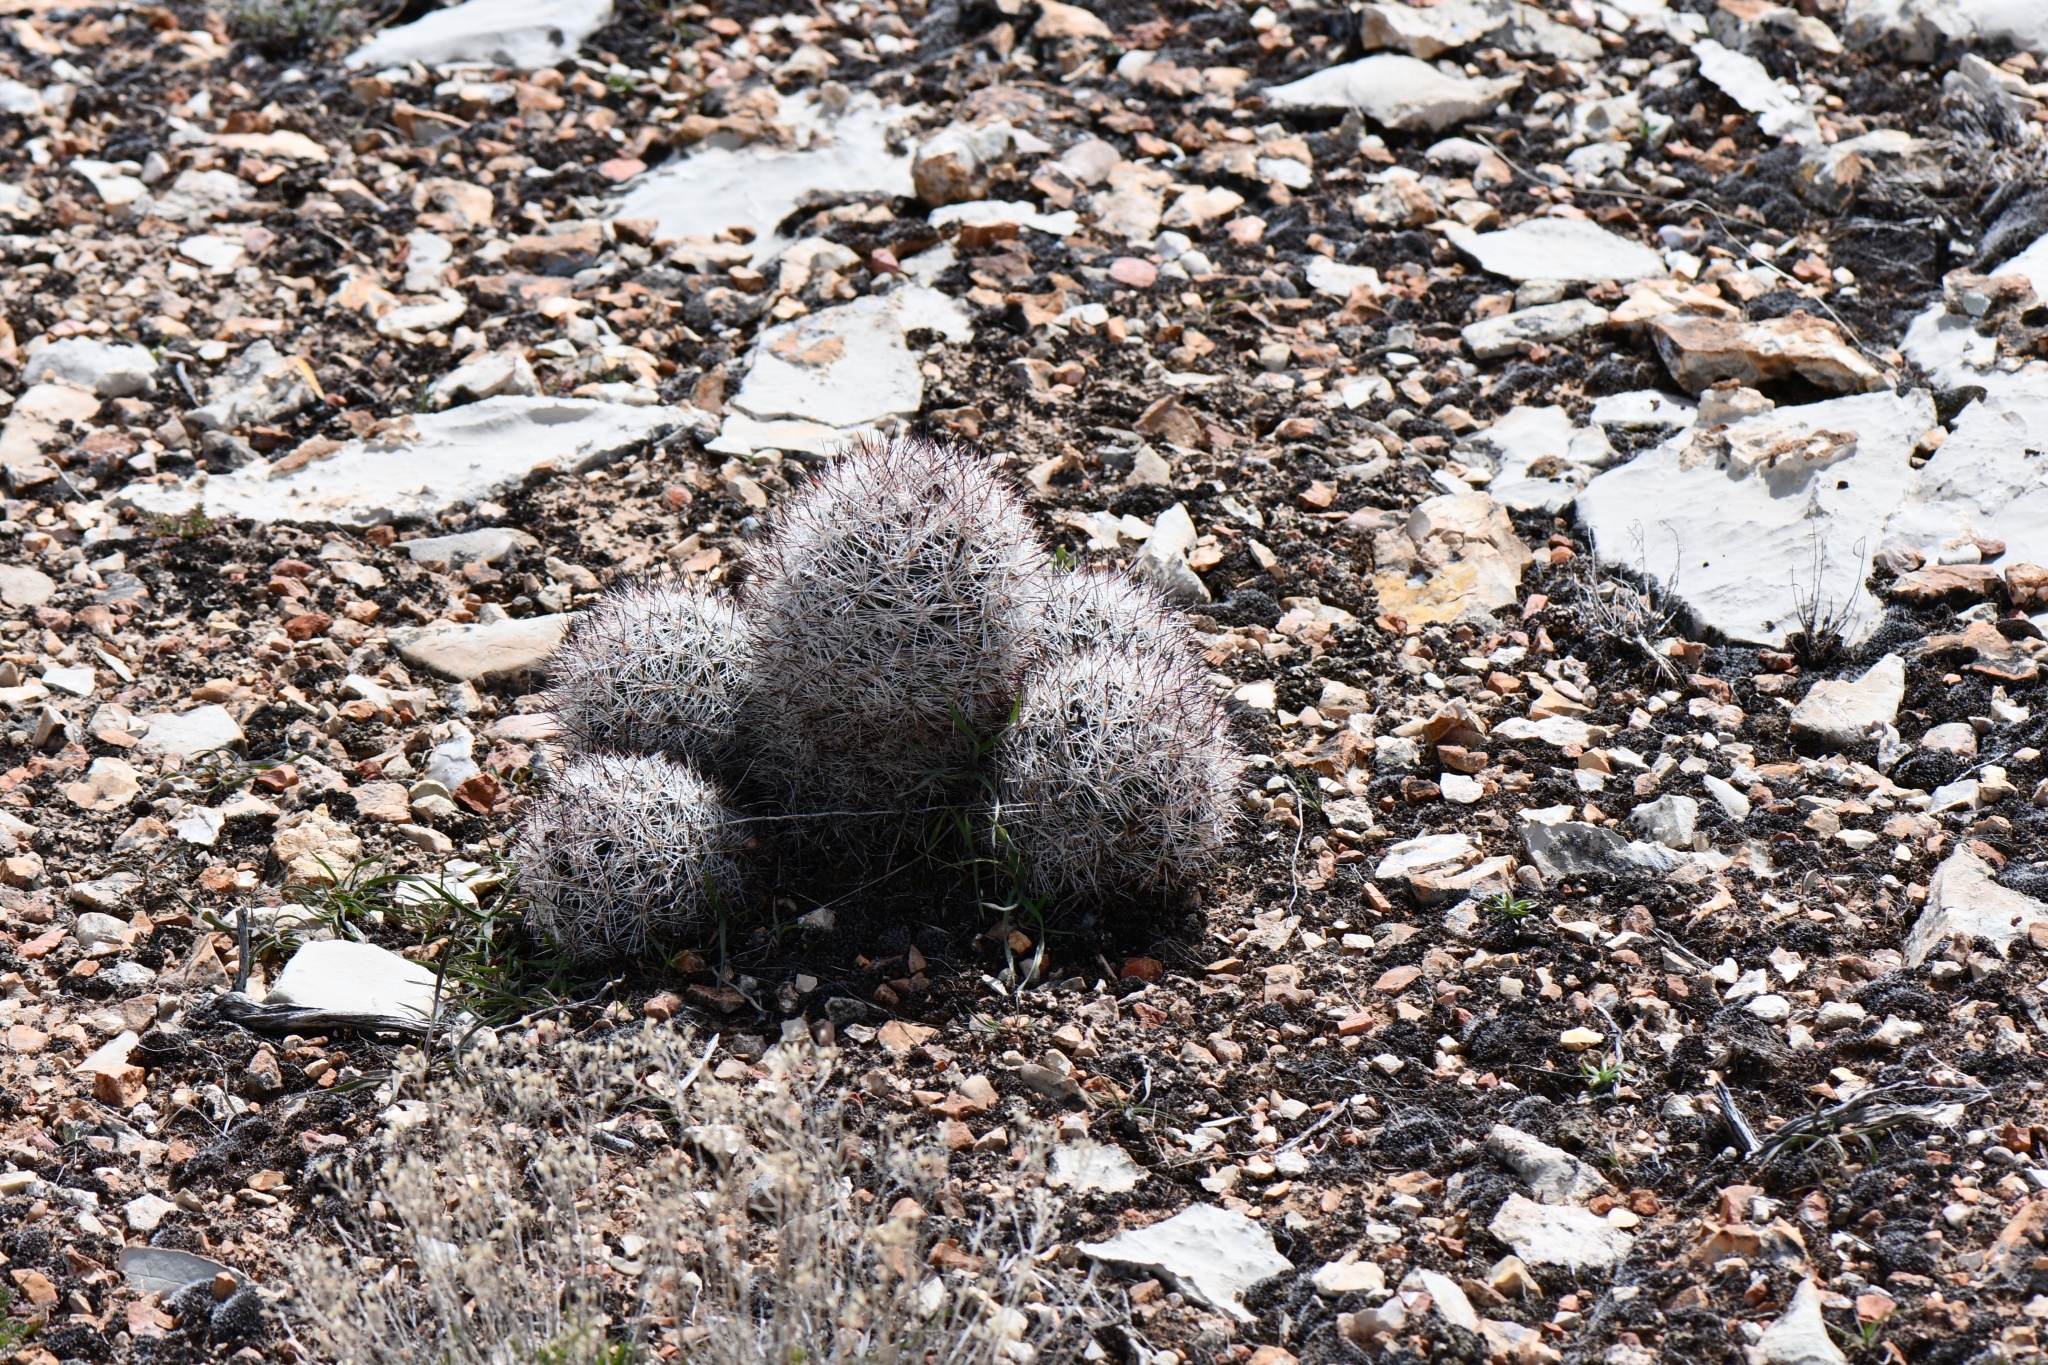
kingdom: Plantae
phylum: Tracheophyta
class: Magnoliopsida
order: Caryophyllales
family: Cactaceae
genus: Pelecyphora
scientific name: Pelecyphora vivipara
